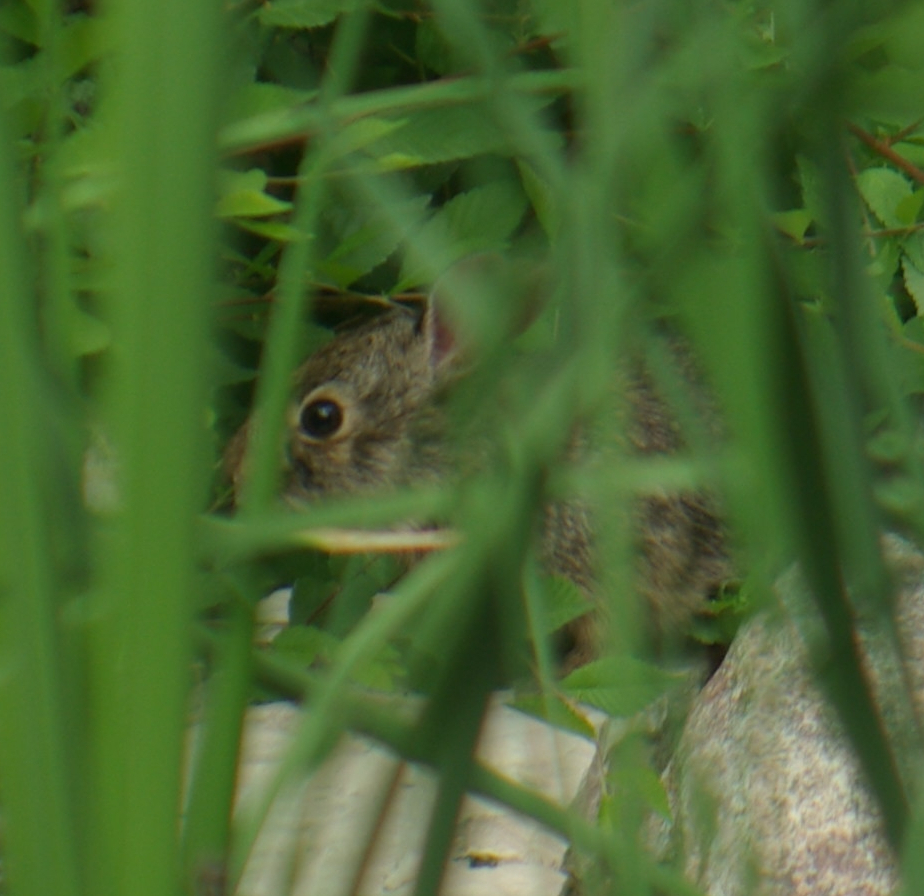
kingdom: Animalia
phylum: Chordata
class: Mammalia
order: Lagomorpha
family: Leporidae
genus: Sylvilagus
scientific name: Sylvilagus floridanus
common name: Eastern cottontail
